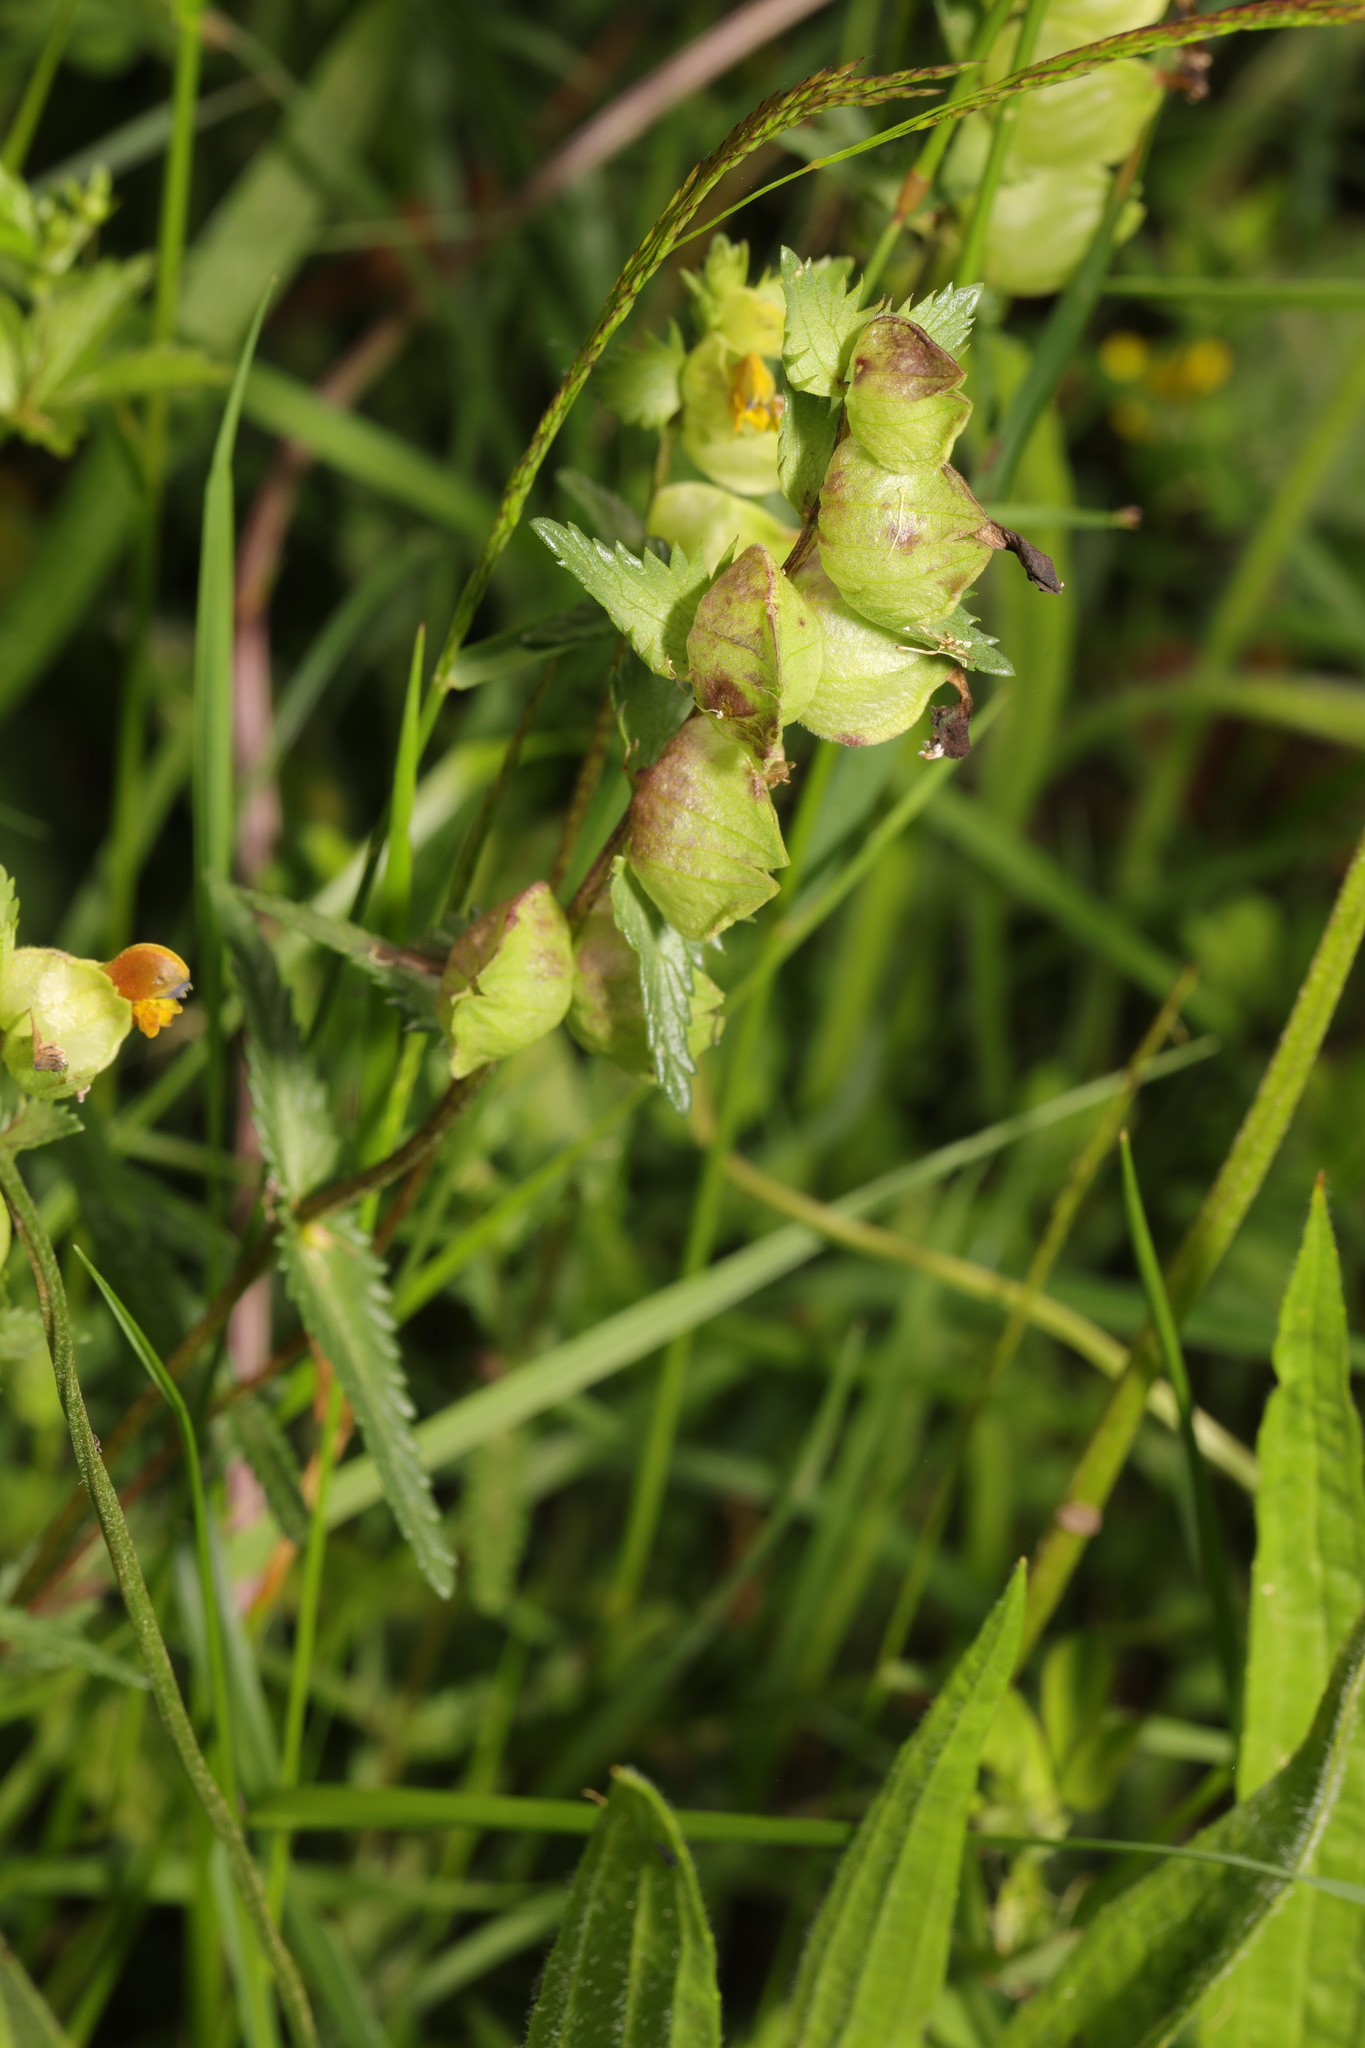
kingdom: Plantae
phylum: Tracheophyta
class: Magnoliopsida
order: Lamiales
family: Orobanchaceae
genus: Rhinanthus
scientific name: Rhinanthus minor
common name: Yellow-rattle
